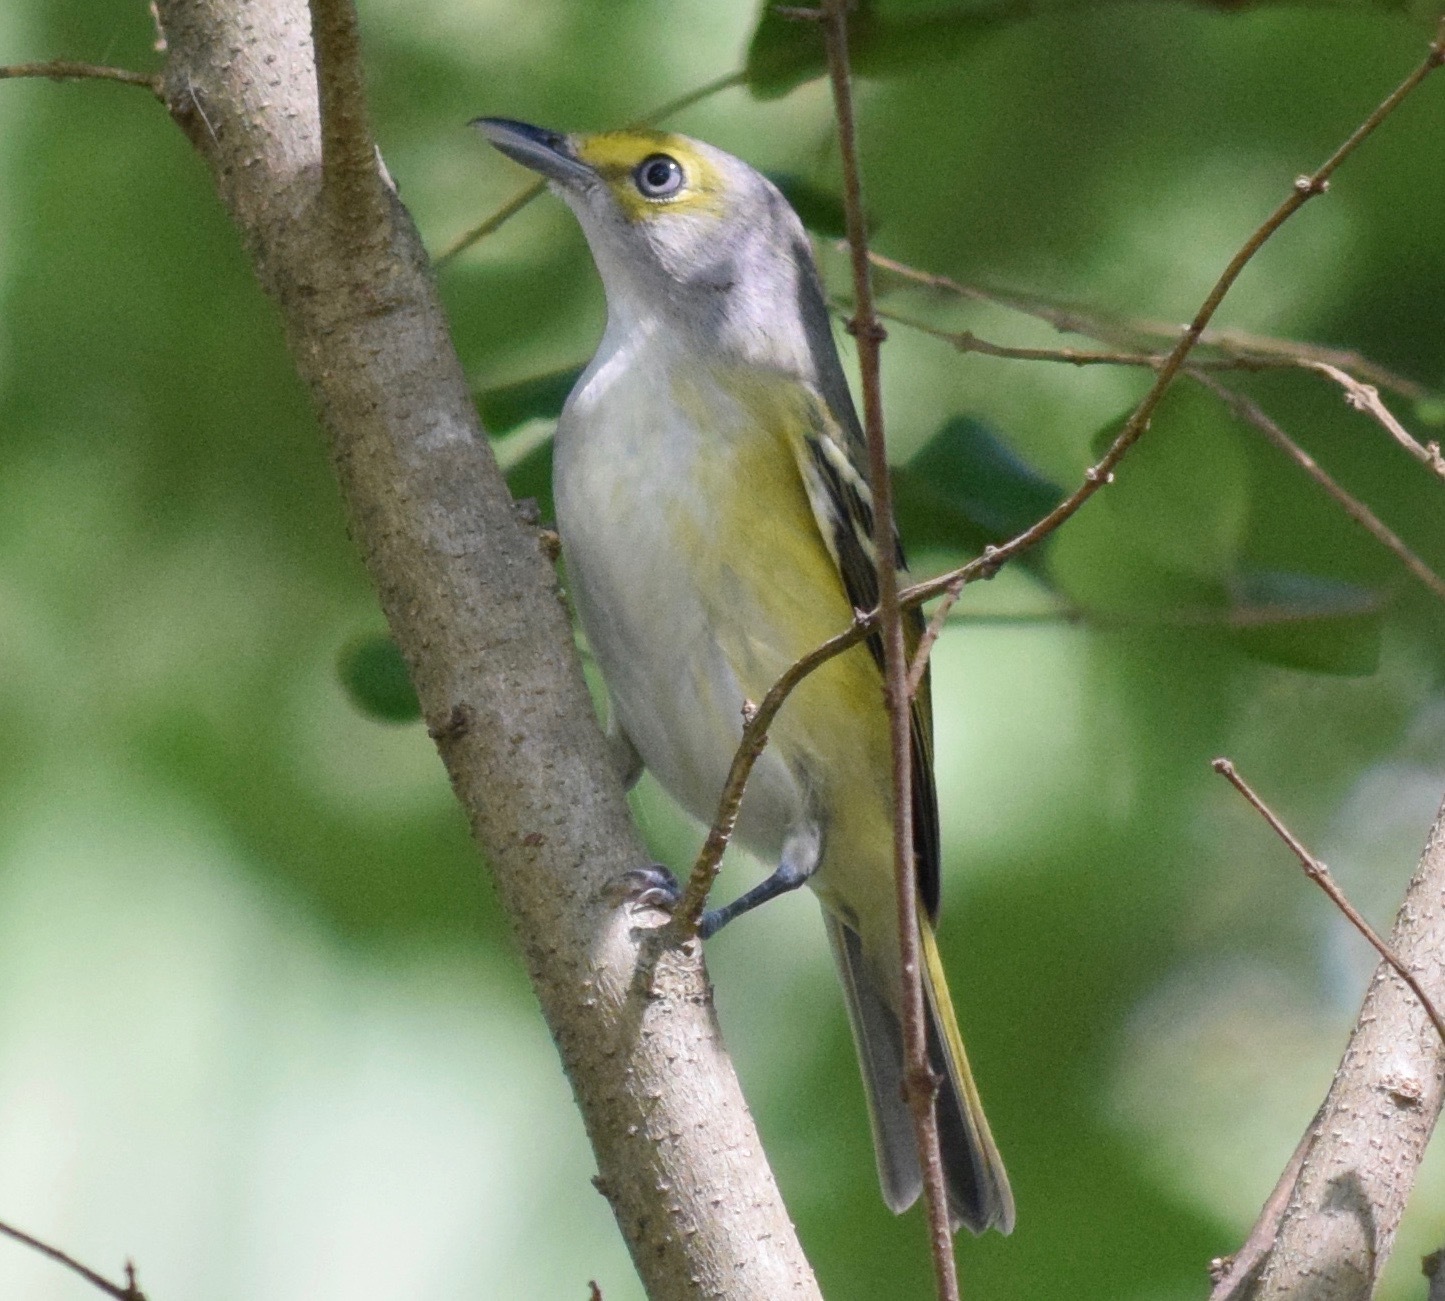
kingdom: Animalia
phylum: Chordata
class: Aves
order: Passeriformes
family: Vireonidae
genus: Vireo
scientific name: Vireo griseus
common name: White-eyed vireo
